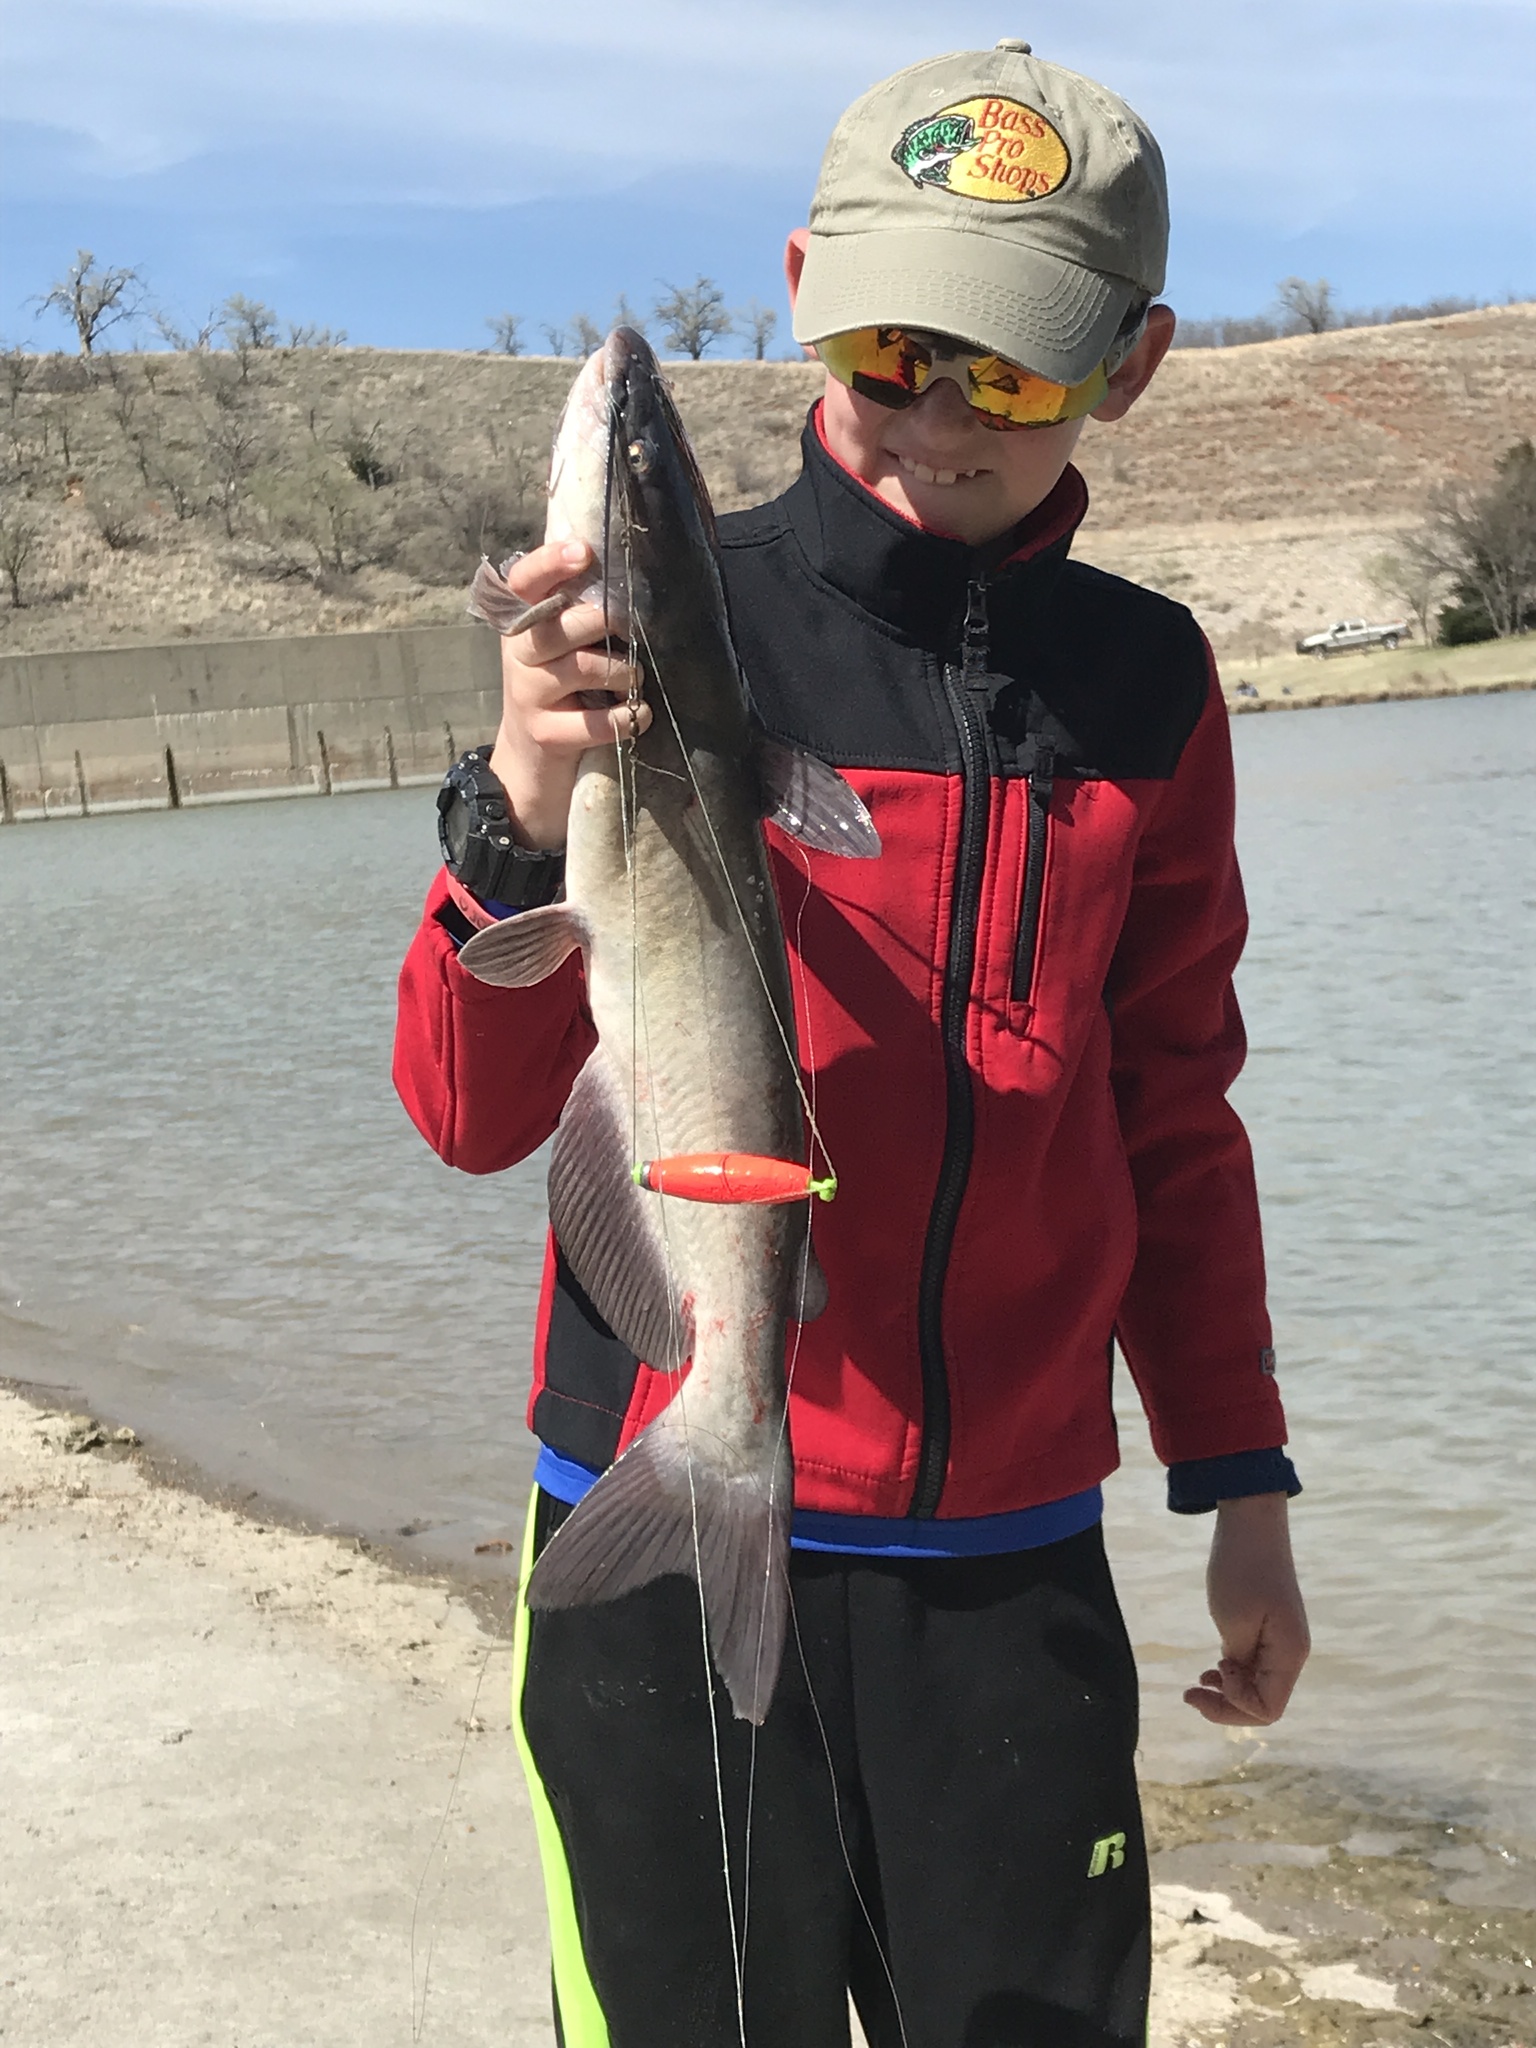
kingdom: Animalia
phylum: Chordata
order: Siluriformes
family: Ictaluridae
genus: Ictalurus
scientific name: Ictalurus punctatus
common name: Channel catfish
